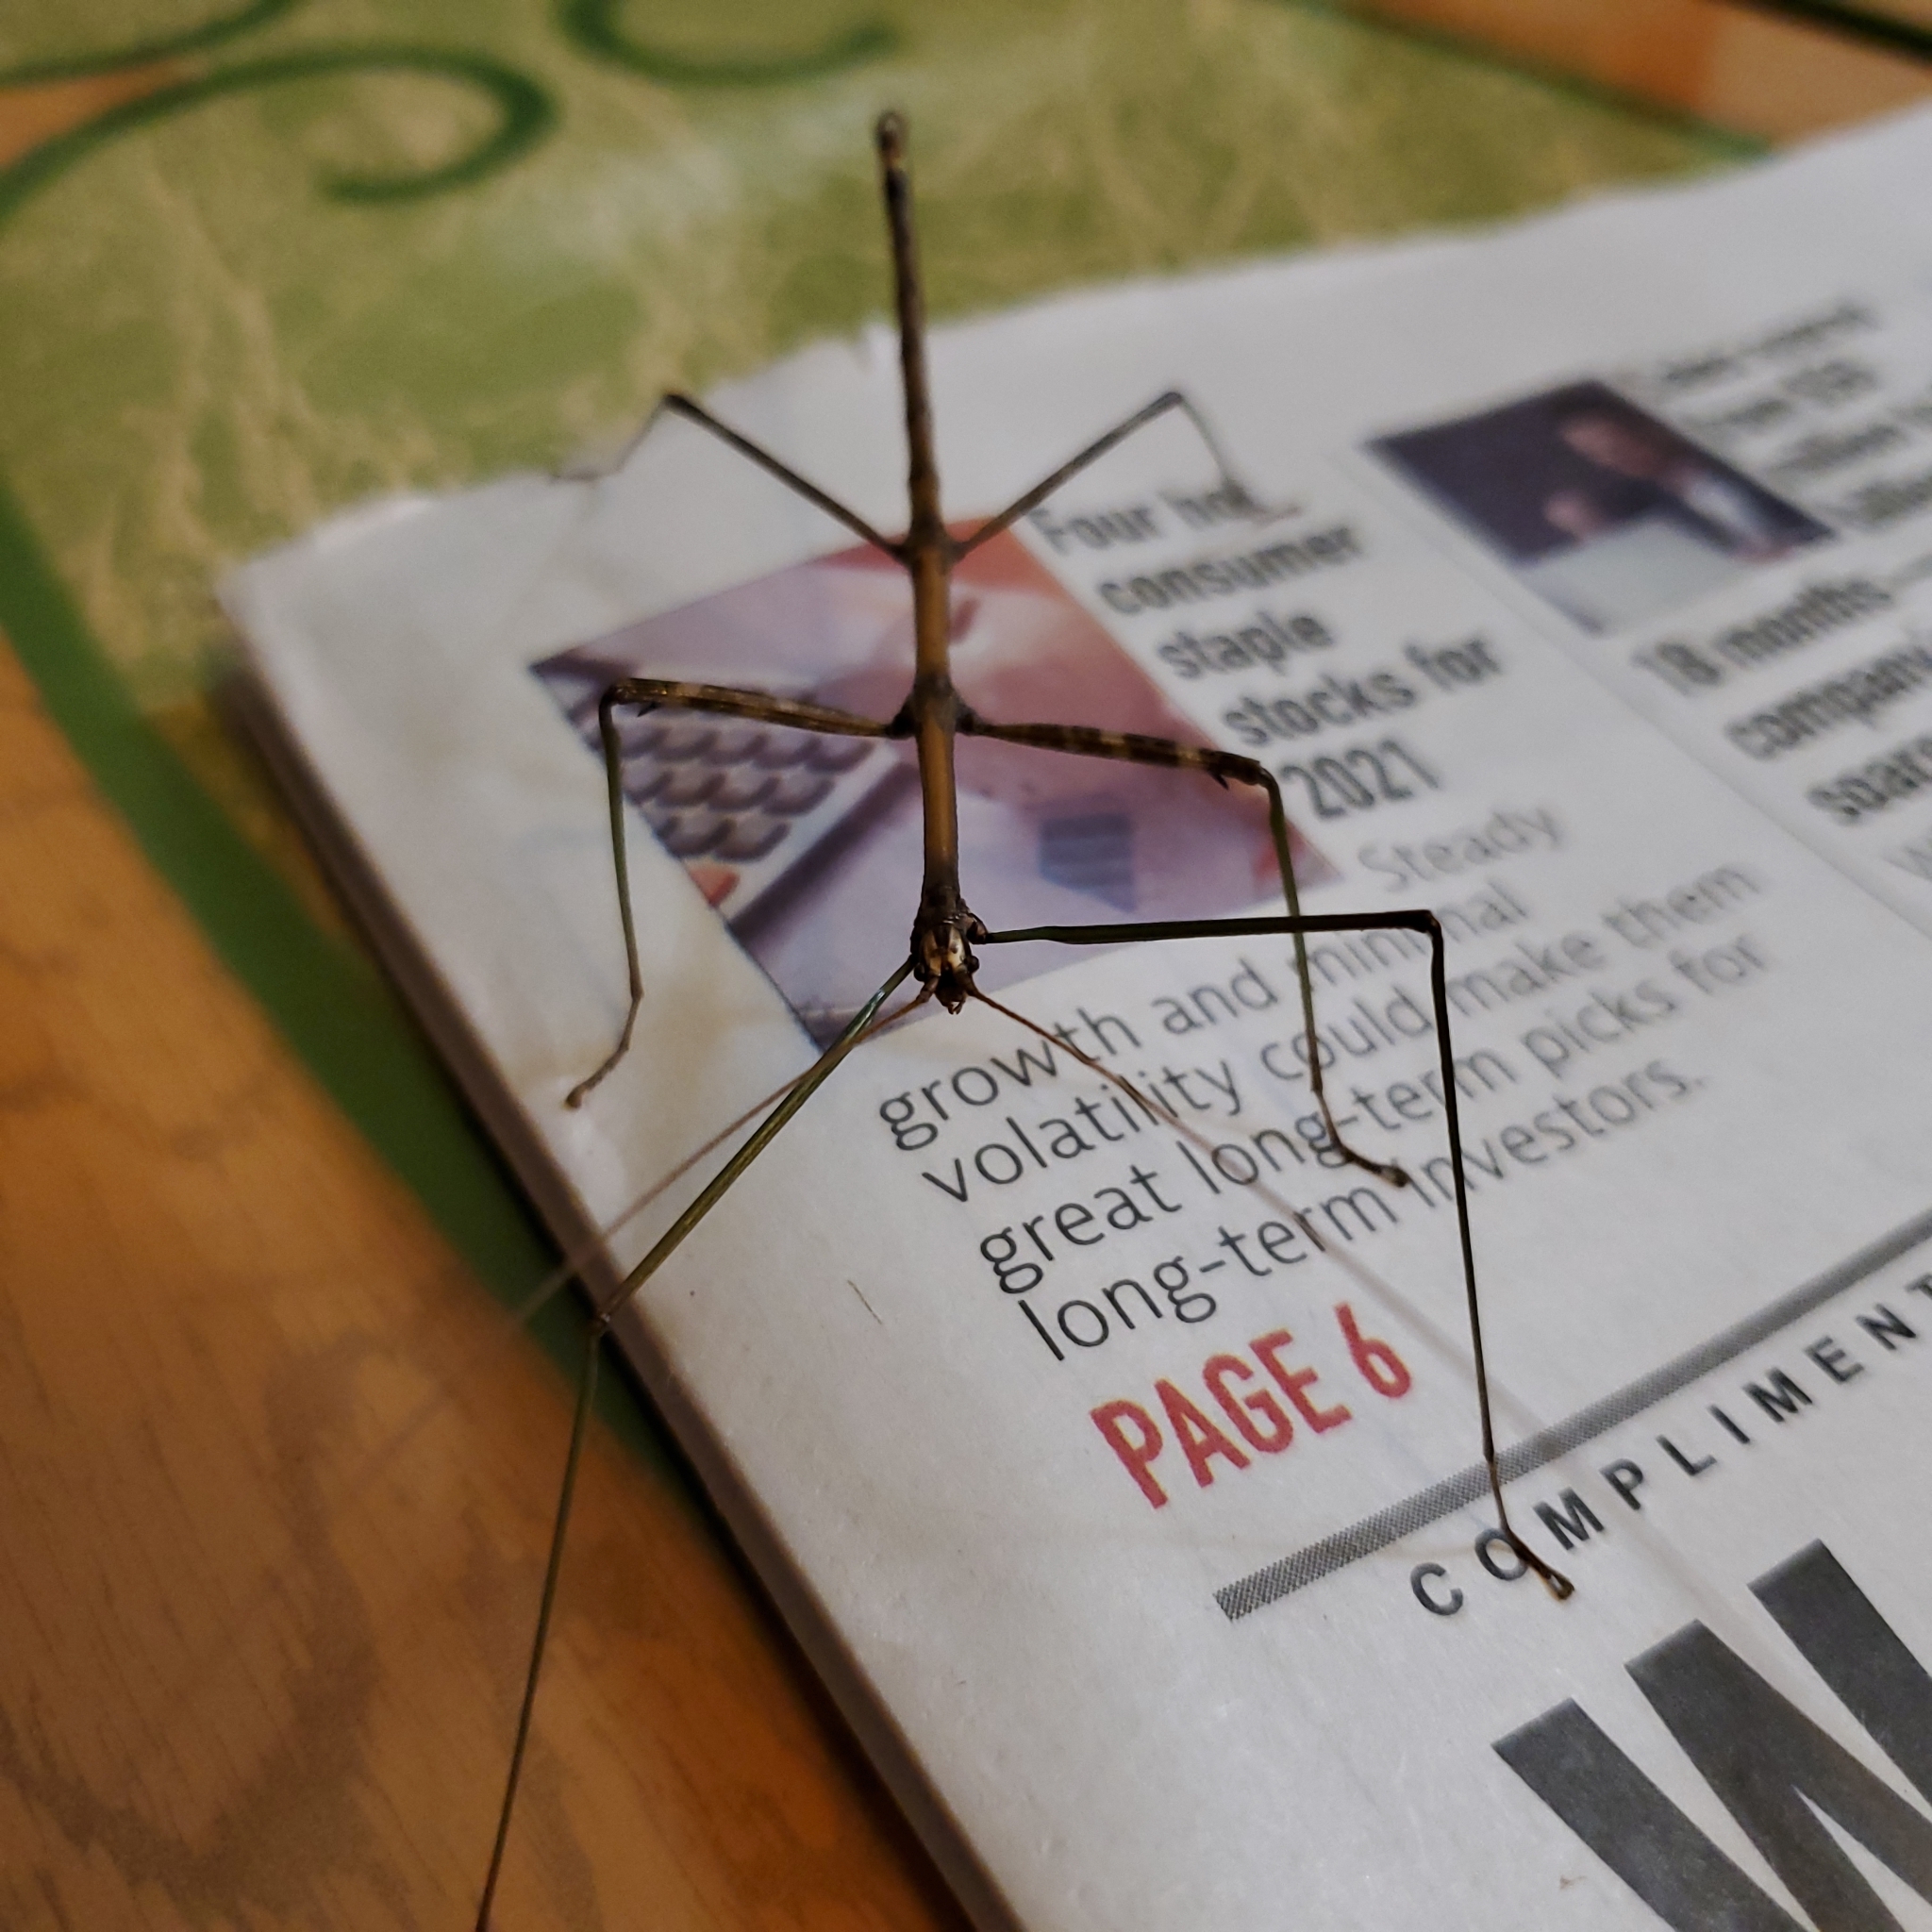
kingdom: Animalia
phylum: Arthropoda
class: Insecta
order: Phasmida
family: Diapheromeridae
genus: Diapheromera
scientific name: Diapheromera femorata
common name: Common american walkingstick
